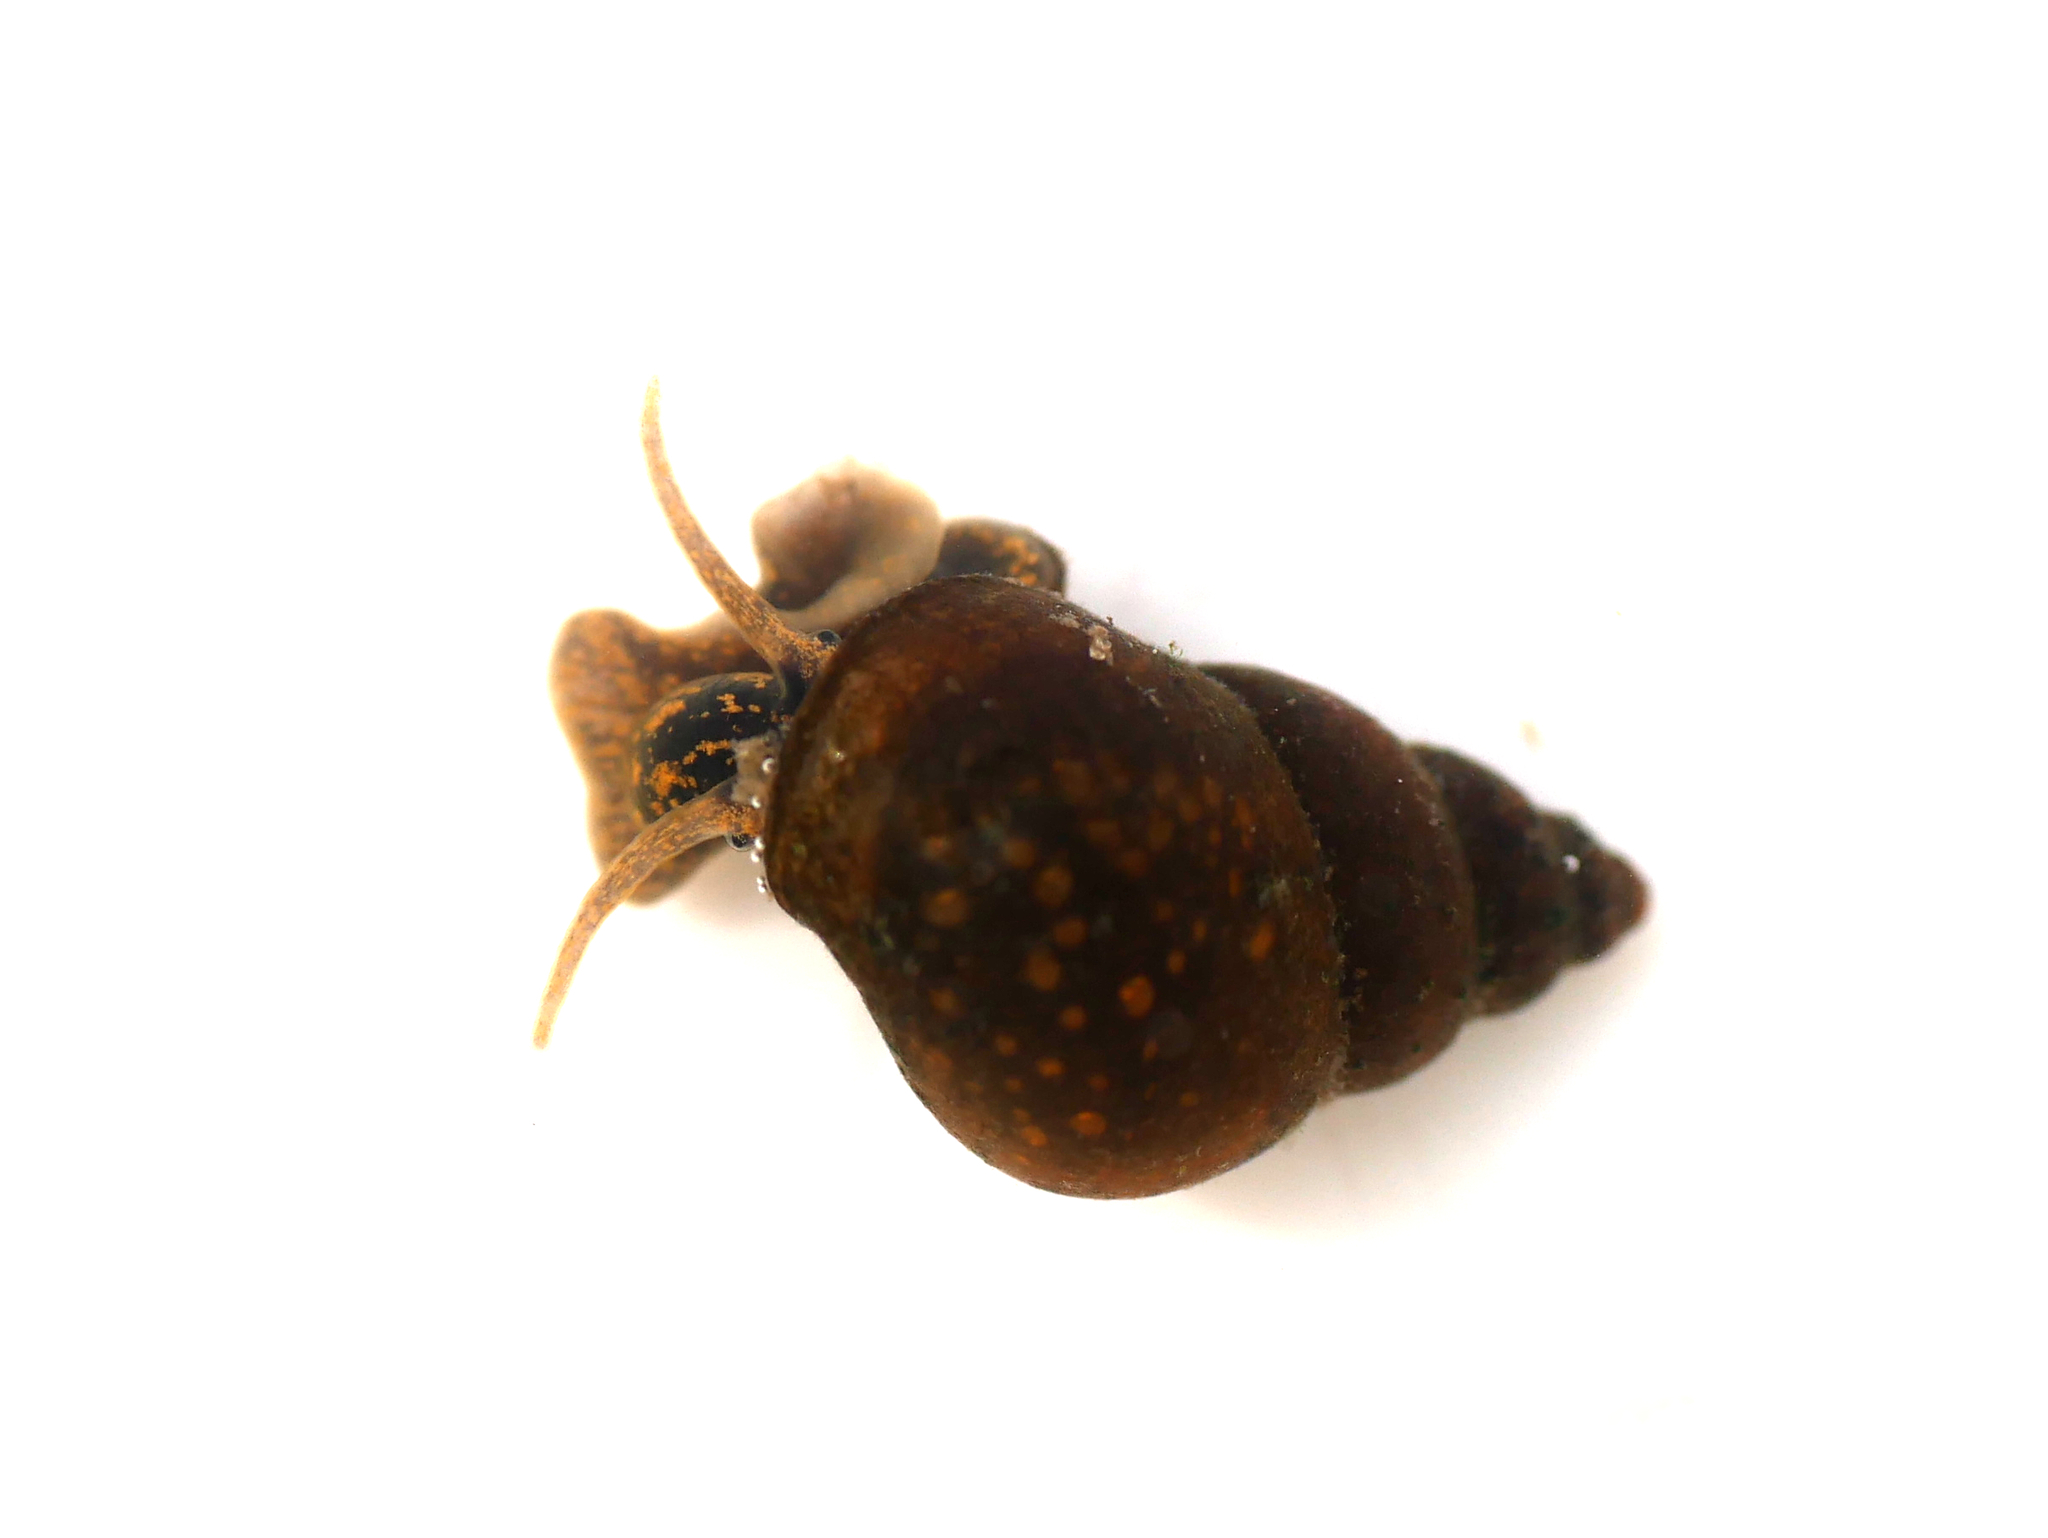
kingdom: Animalia
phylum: Mollusca
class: Gastropoda
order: Littorinimorpha
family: Bithyniidae
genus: Bithynia
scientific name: Bithynia tentaculata
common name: Common bithynia
